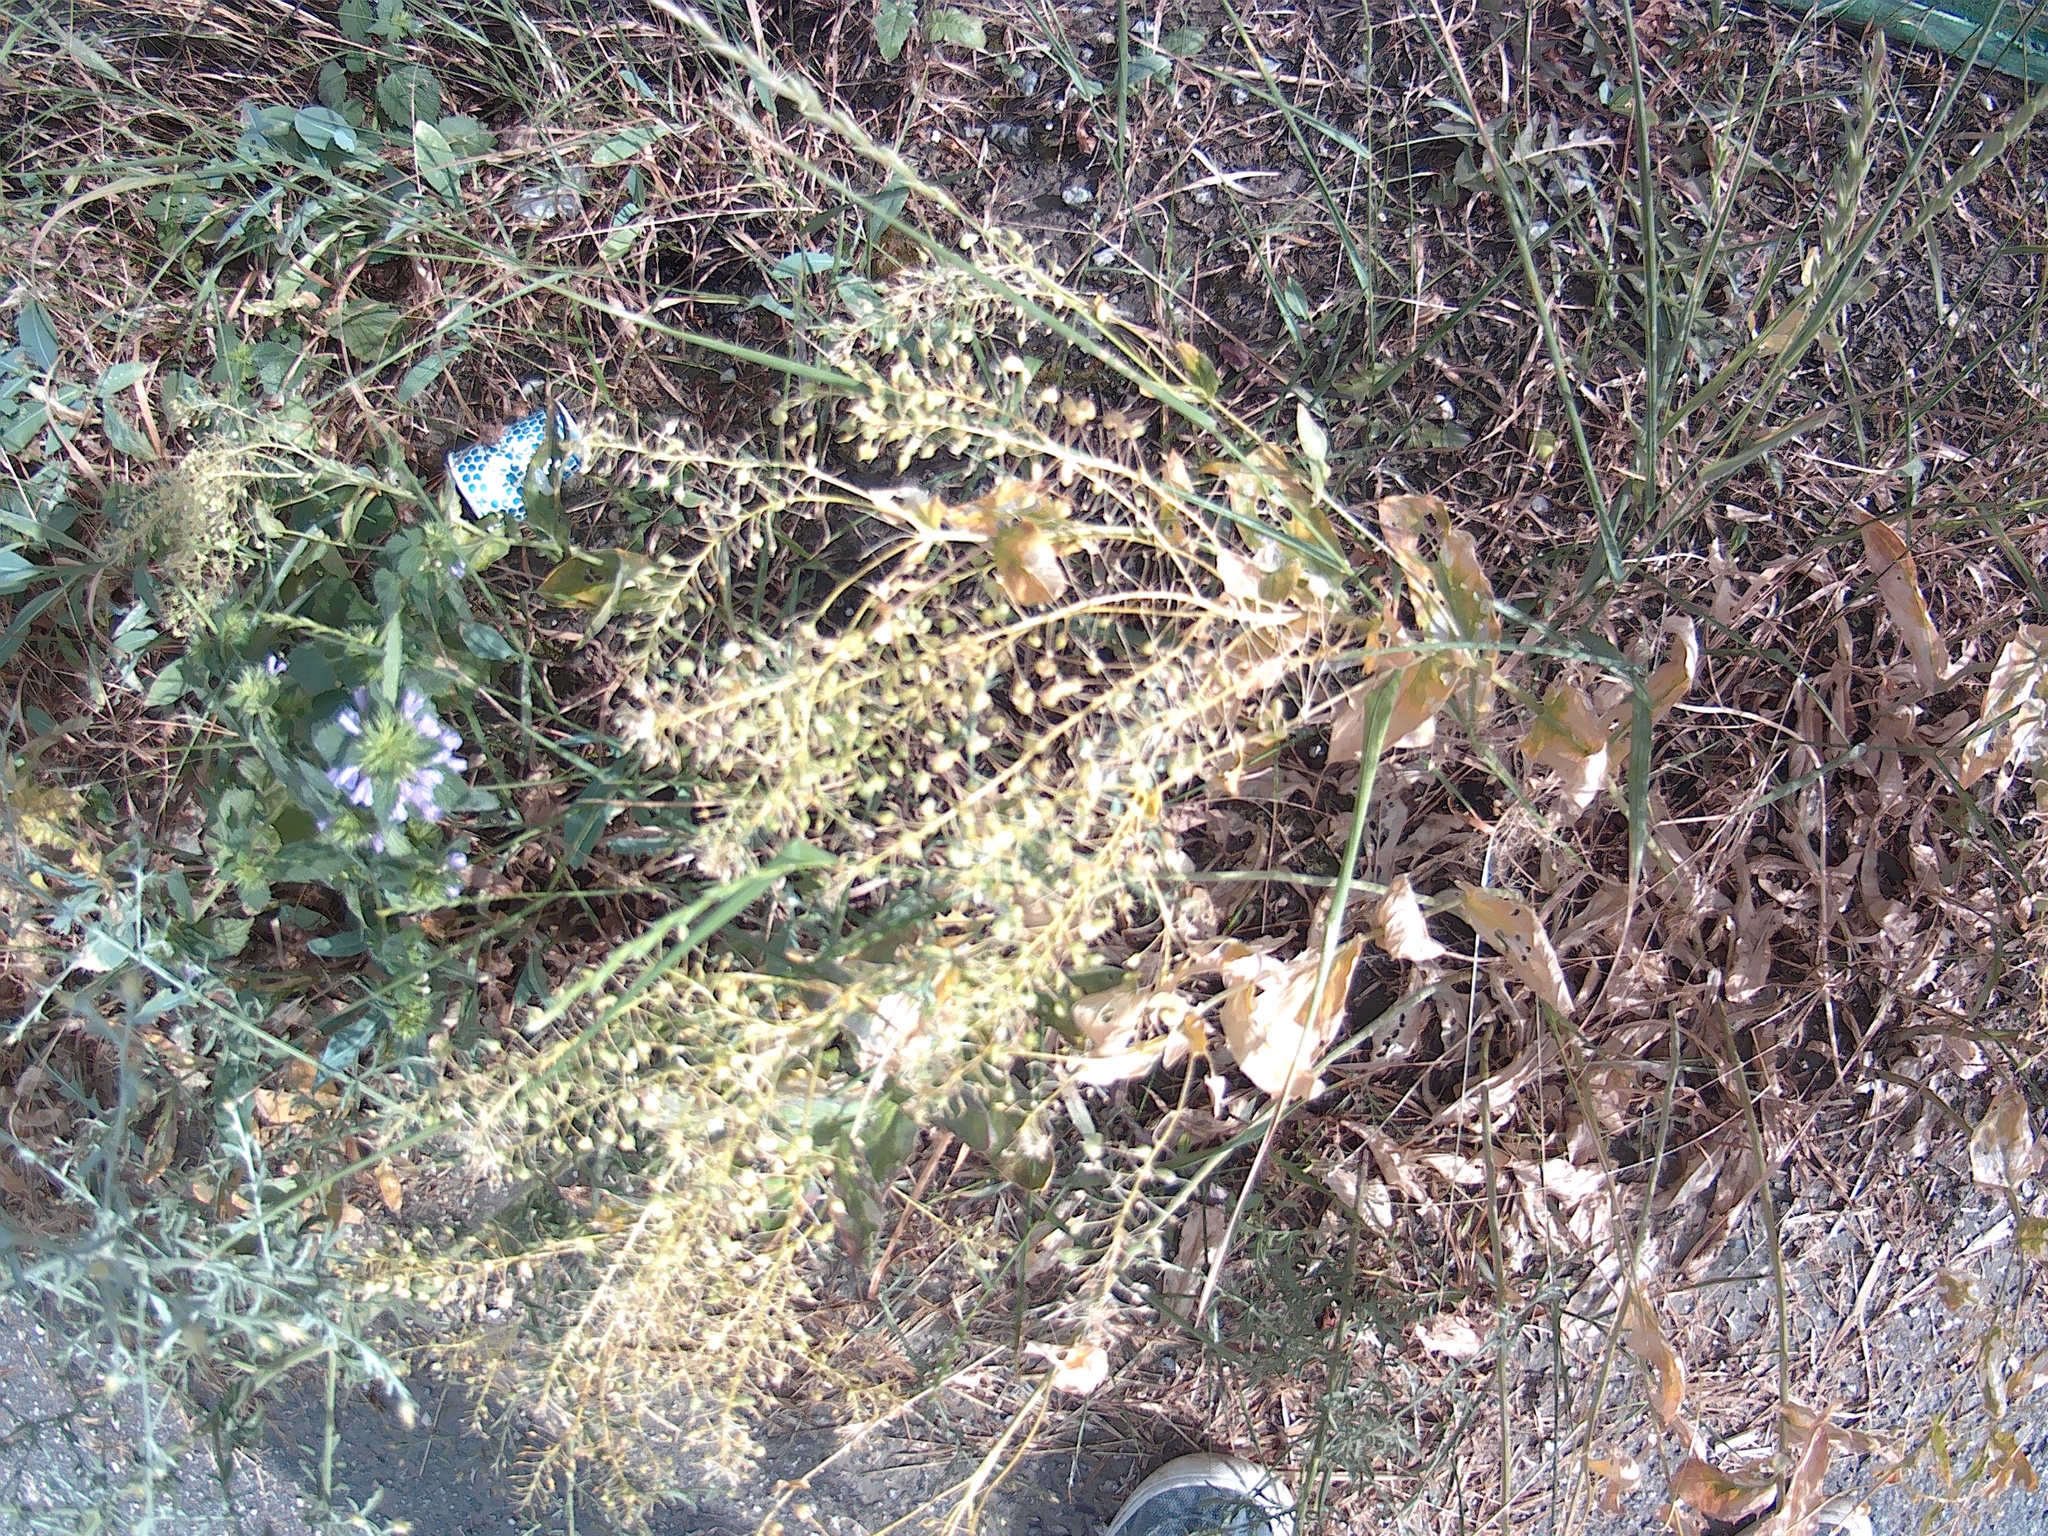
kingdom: Plantae
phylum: Tracheophyta
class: Magnoliopsida
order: Brassicales
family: Brassicaceae
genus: Lepidium
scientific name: Lepidium draba
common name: Hoary cress
